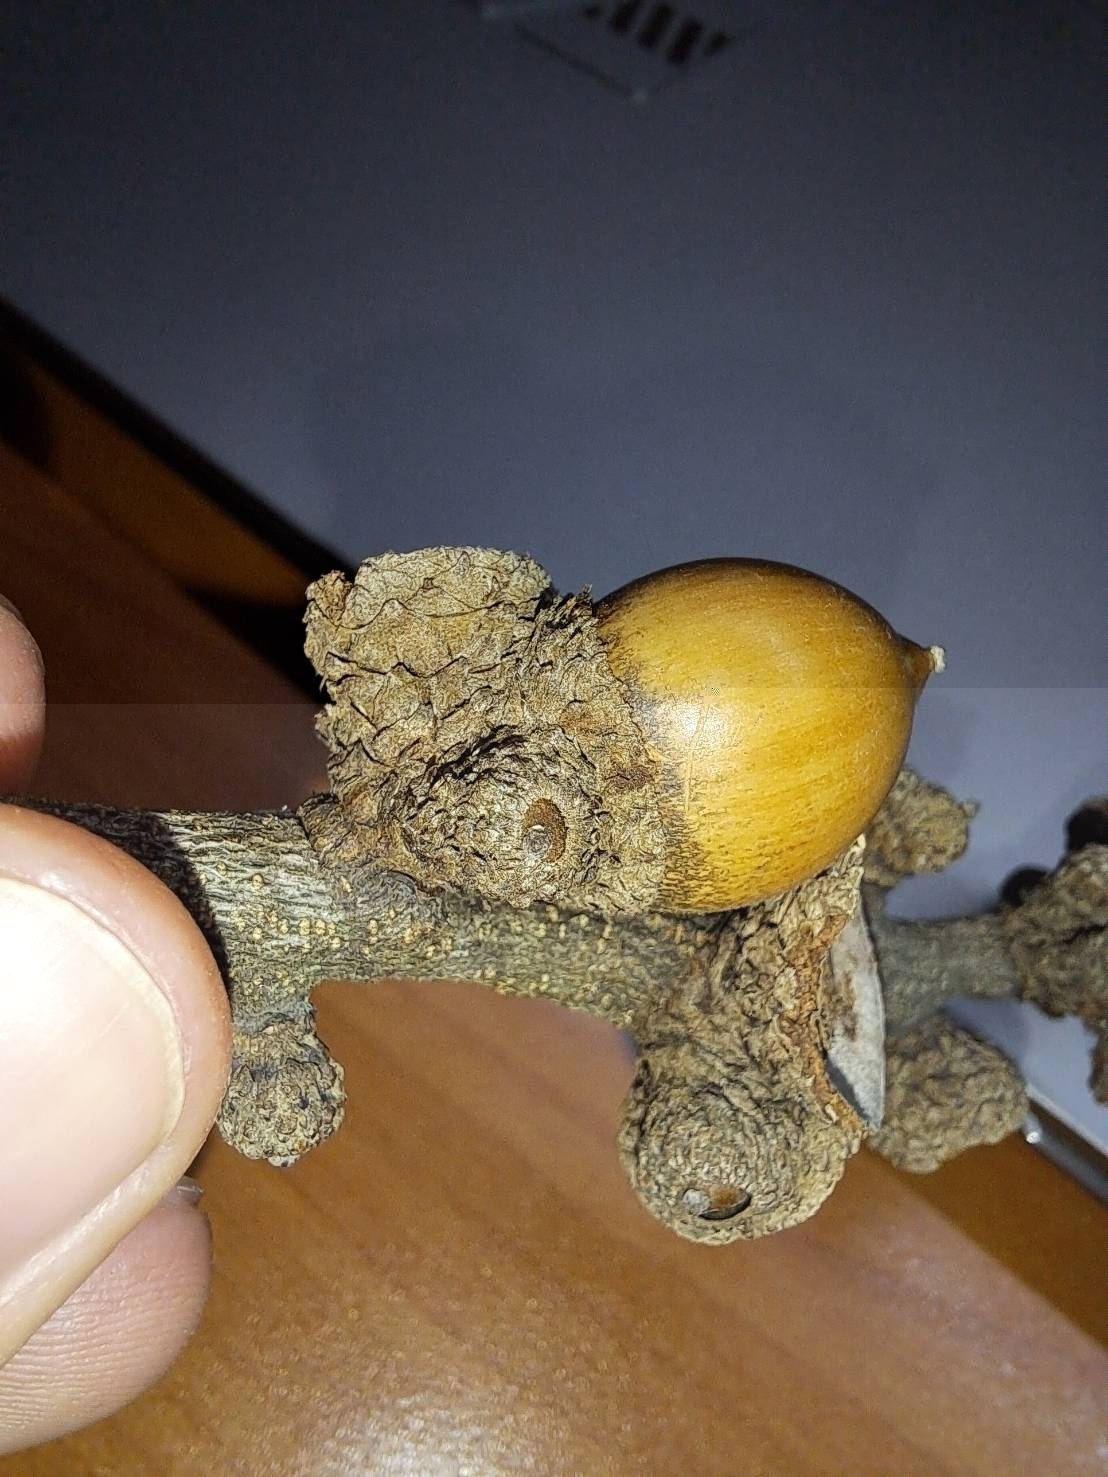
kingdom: Plantae
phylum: Tracheophyta
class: Magnoliopsida
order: Fagales
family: Fagaceae
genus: Lithocarpus
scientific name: Lithocarpus brevicaudatus
